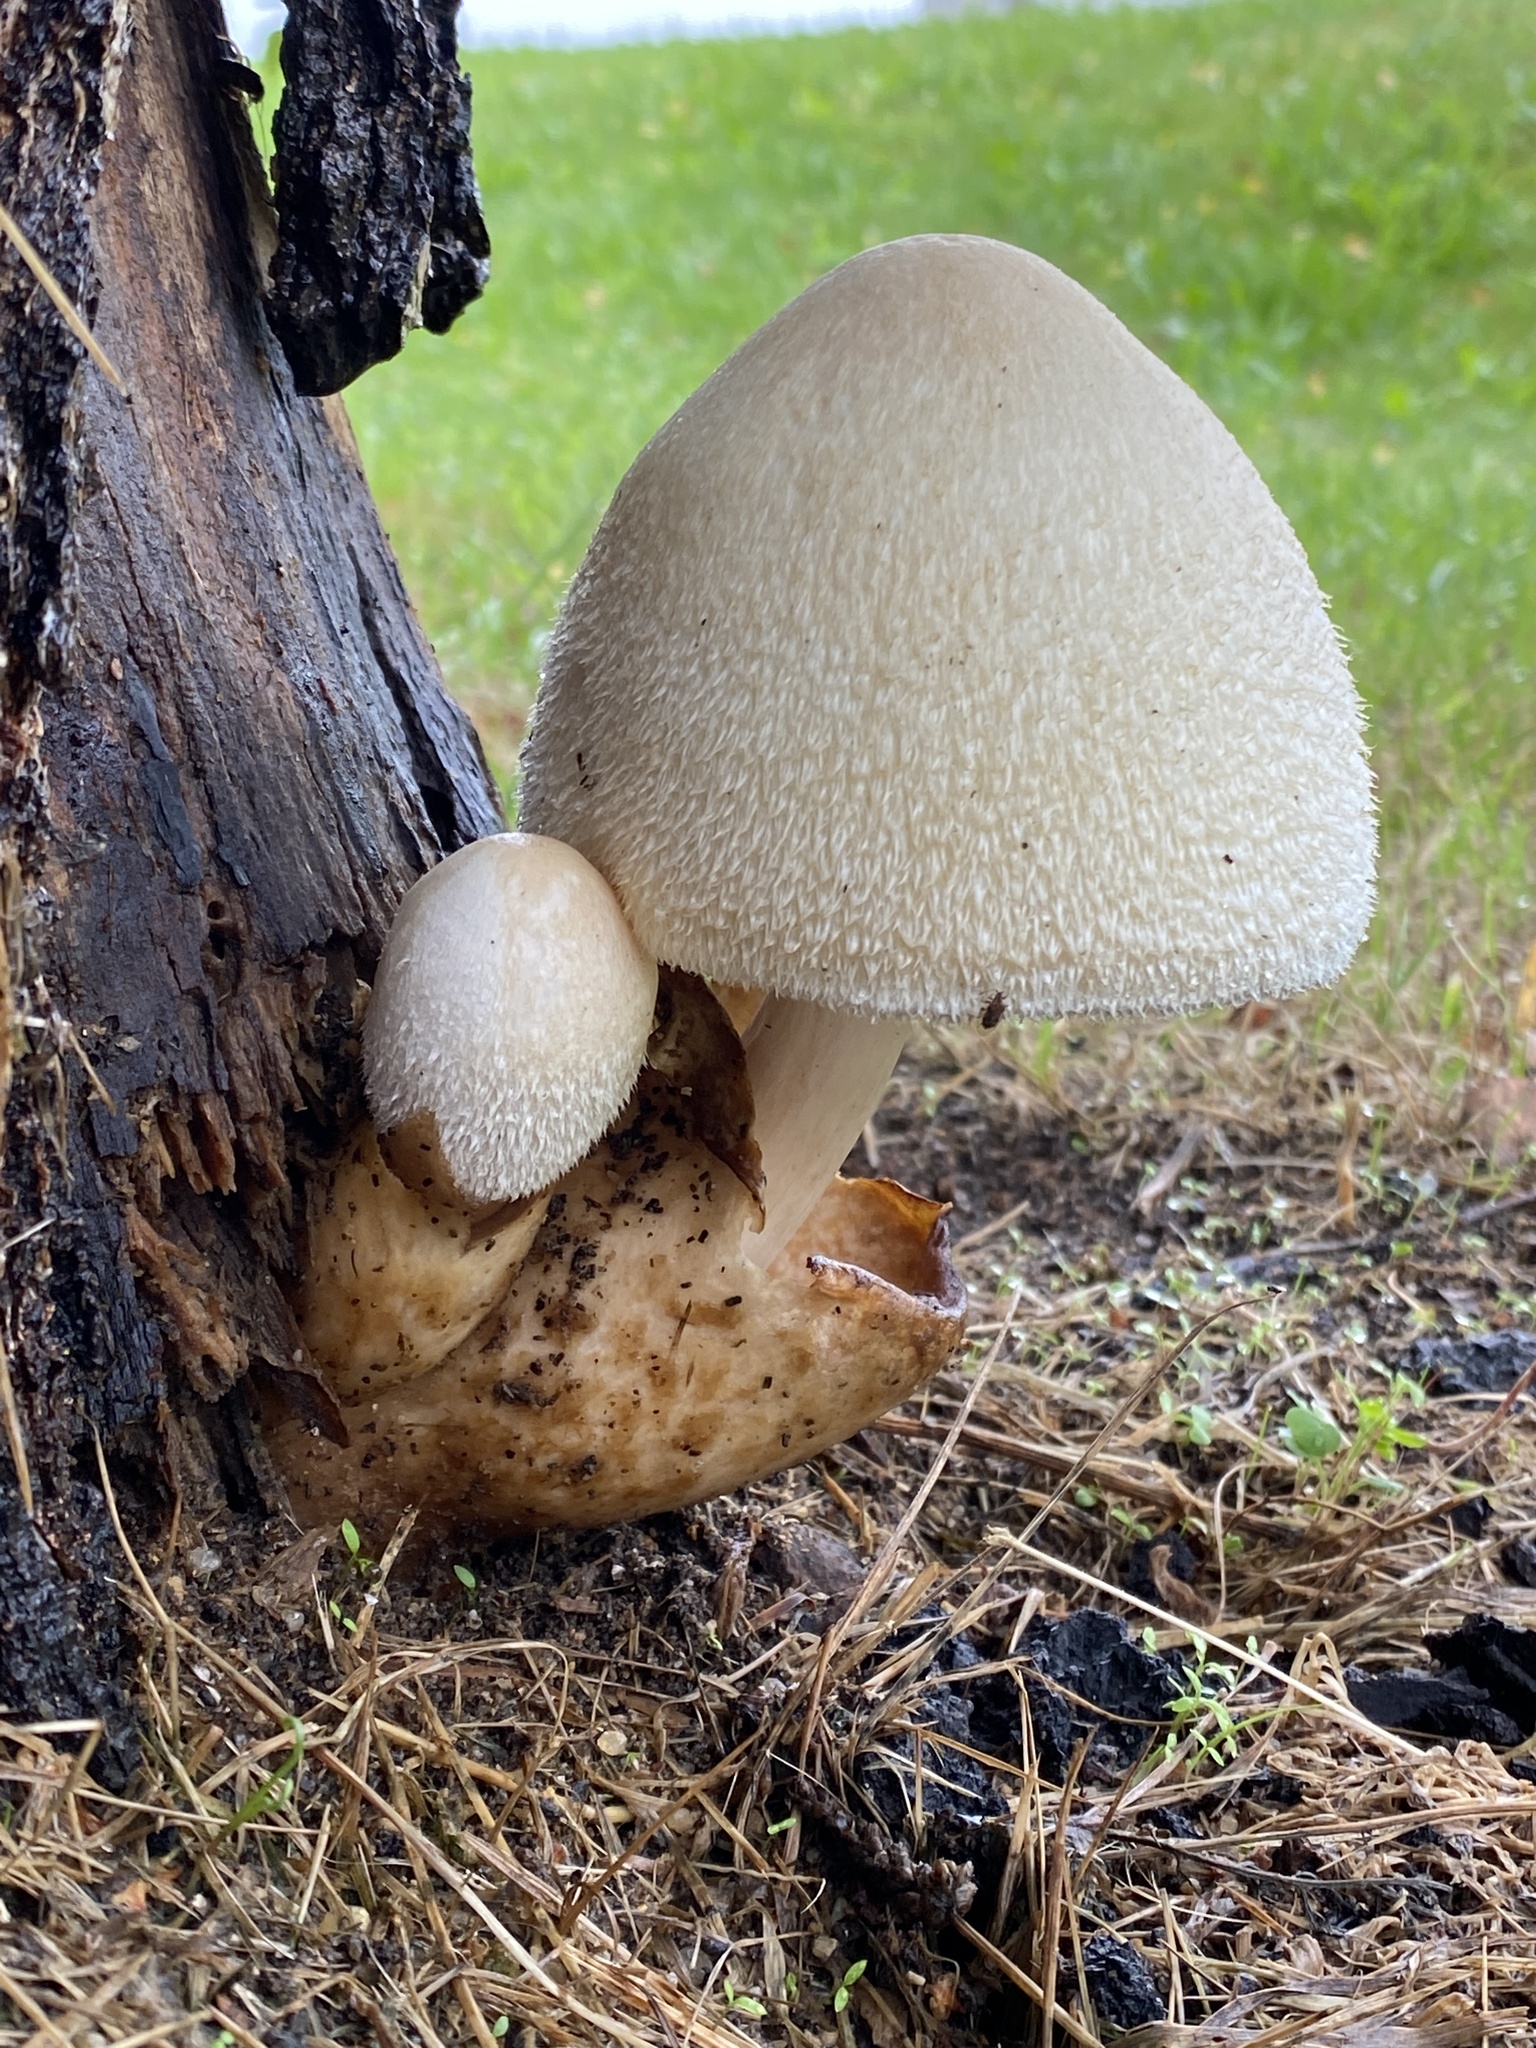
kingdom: Fungi
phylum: Basidiomycota
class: Agaricomycetes
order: Agaricales
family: Pluteaceae
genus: Volvariella
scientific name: Volvariella bombycina
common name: Silky rosegill
